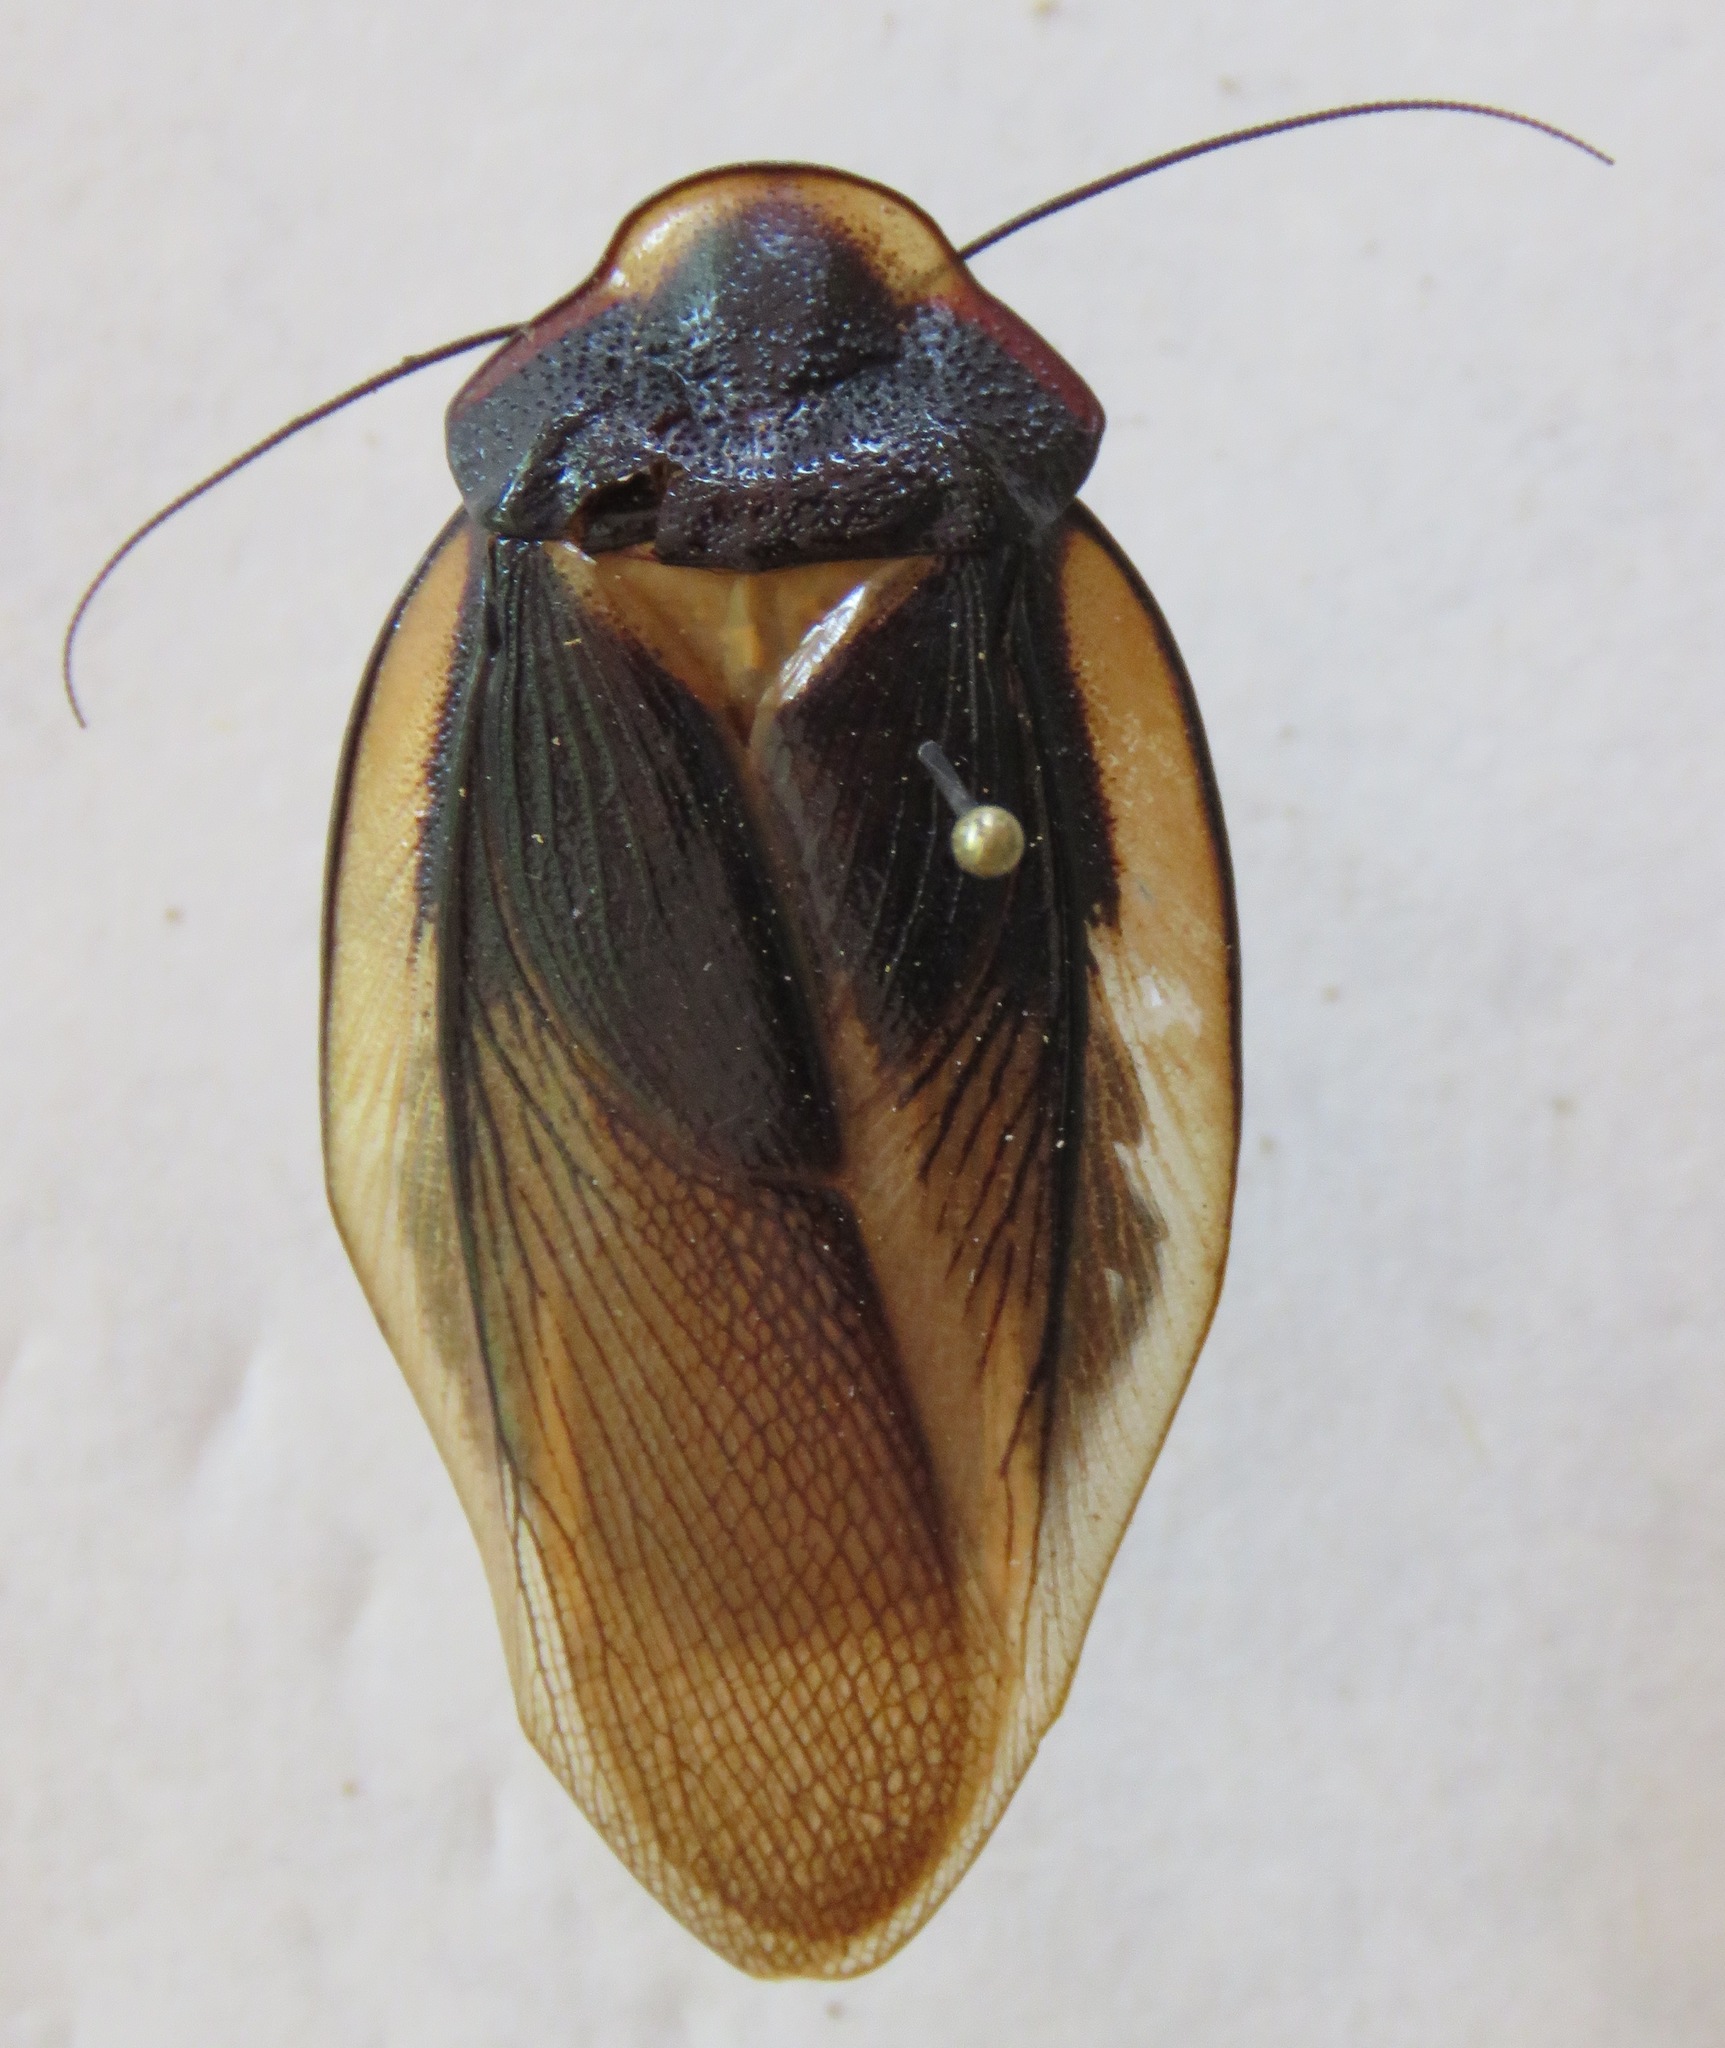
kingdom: Animalia
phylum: Arthropoda
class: Insecta
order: Blattodea
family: Blaberidae
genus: Phortioeca
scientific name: Phortioeca phoraspoides
